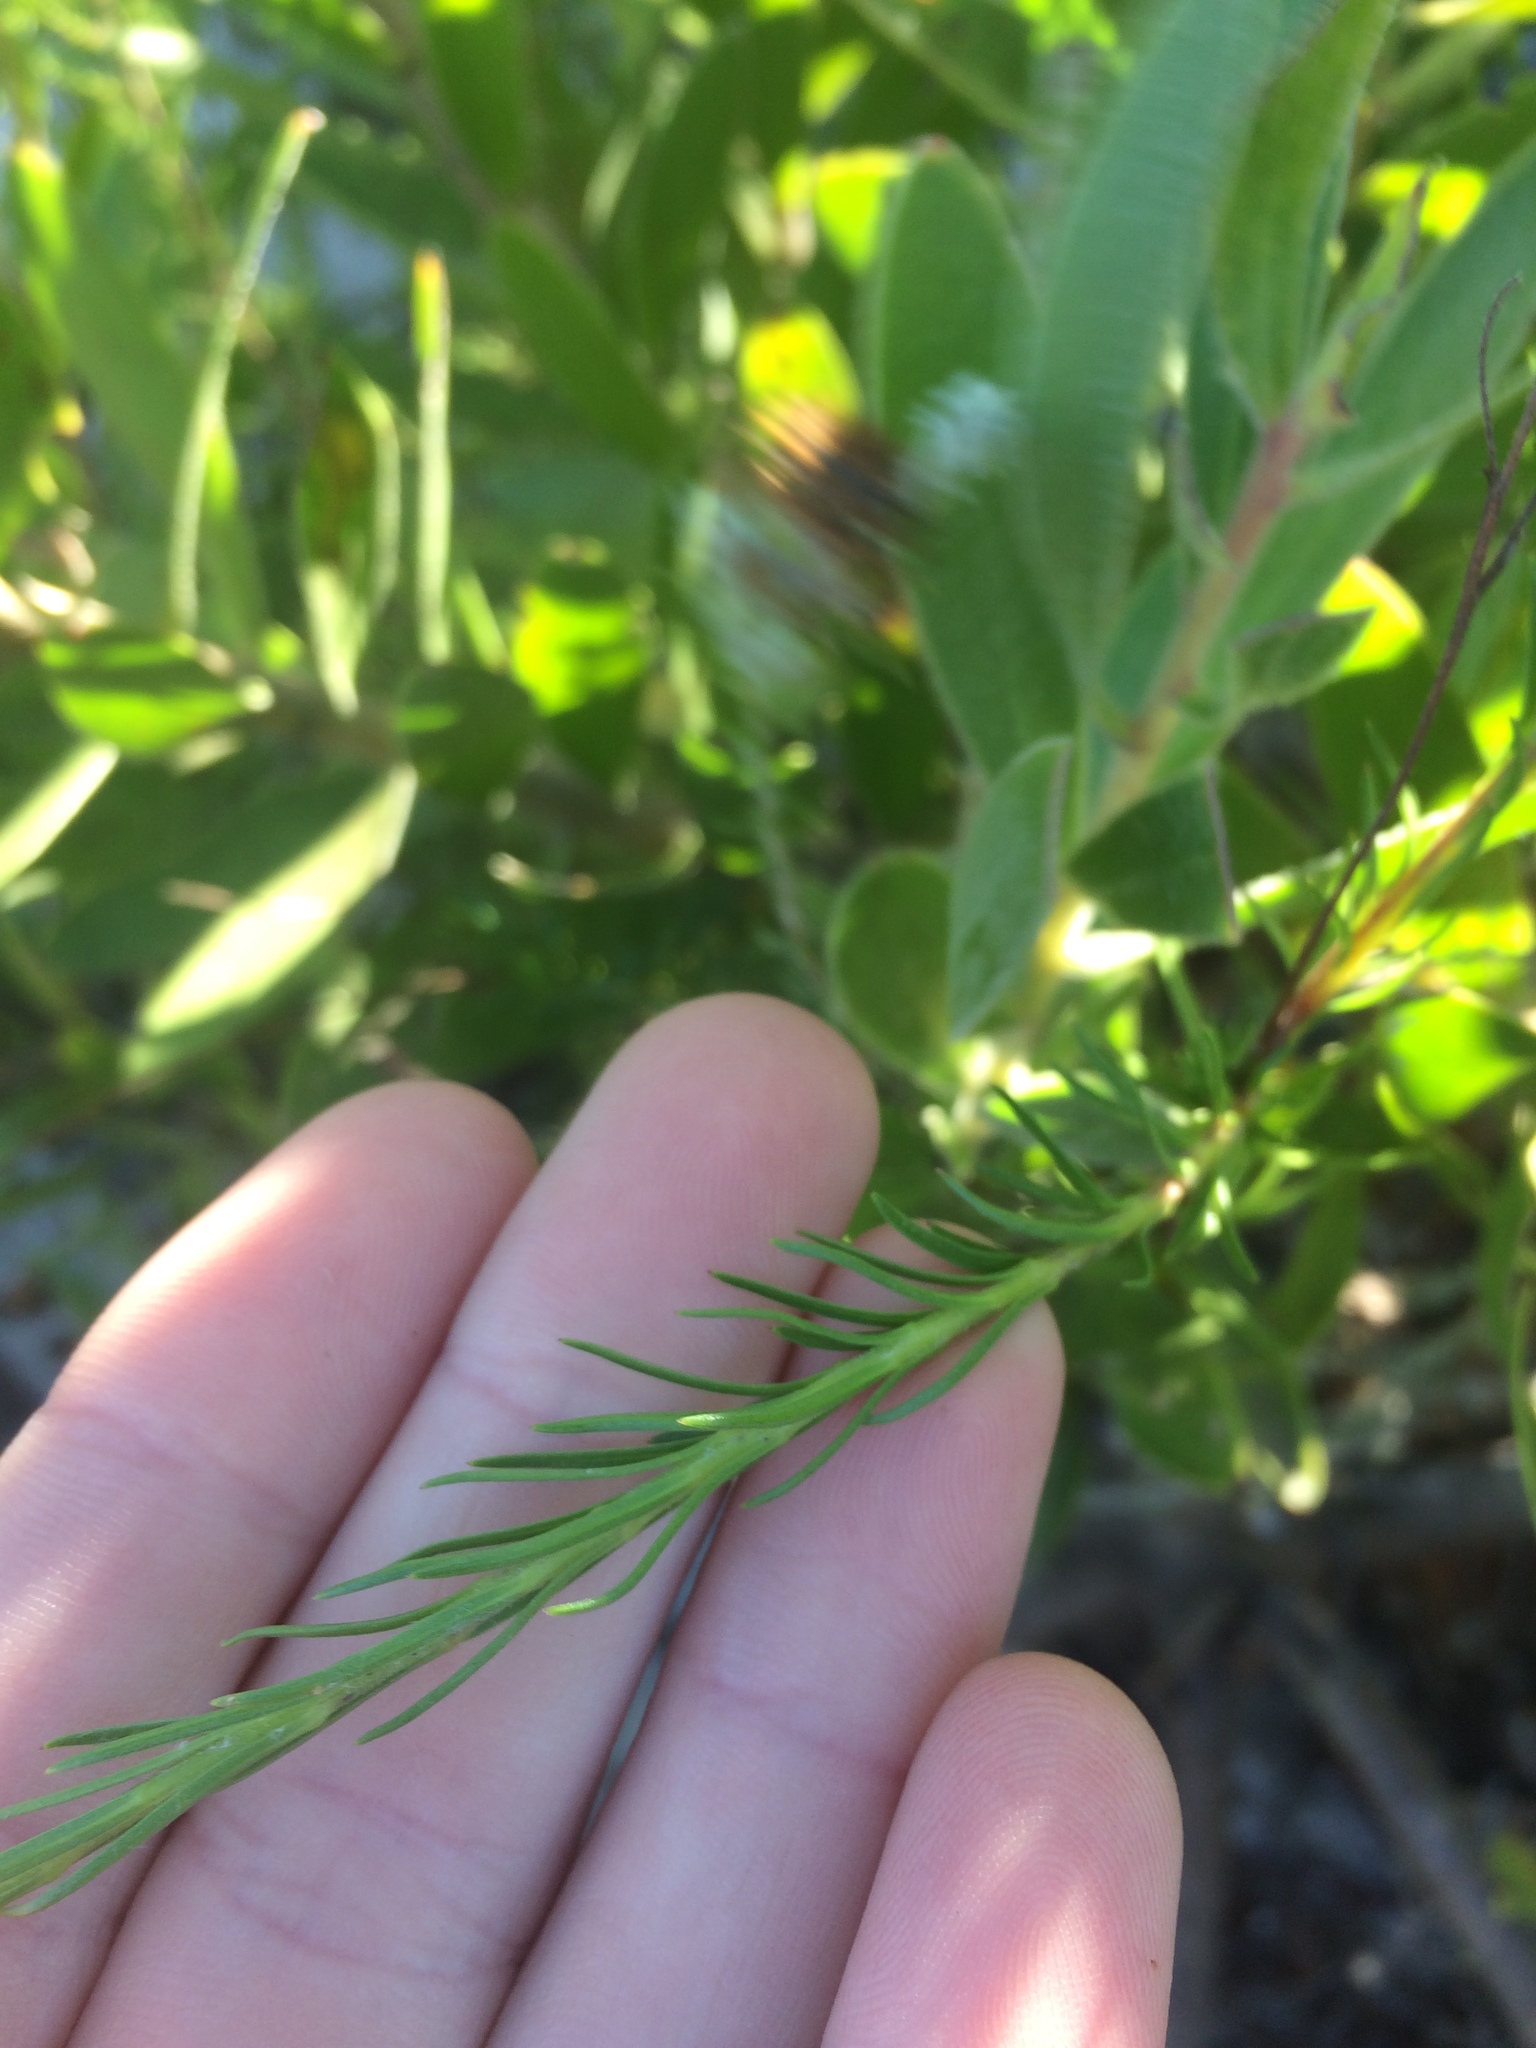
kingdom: Plantae
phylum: Tracheophyta
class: Magnoliopsida
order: Asterales
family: Campanulaceae
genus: Lobelia
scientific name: Lobelia pinifolia
